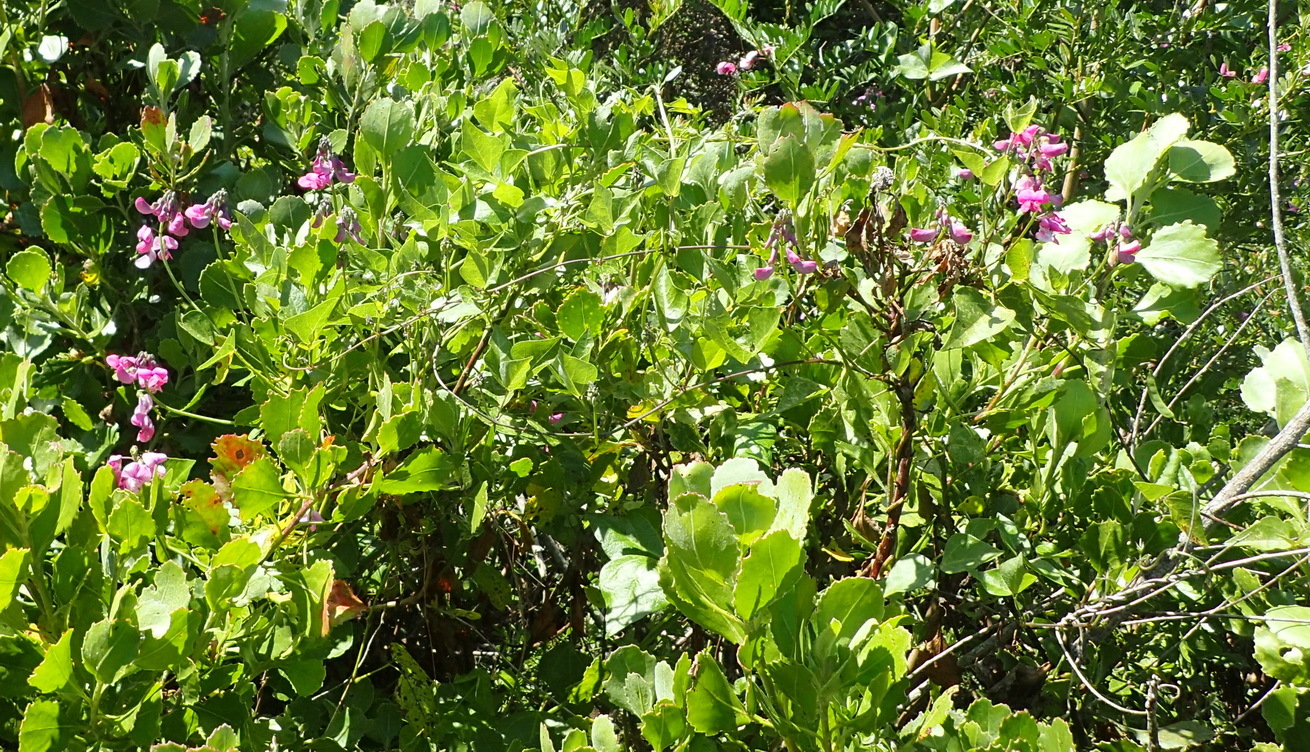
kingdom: Plantae
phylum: Tracheophyta
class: Magnoliopsida
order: Fabales
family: Fabaceae
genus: Dipogon
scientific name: Dipogon lignosus
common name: Okie bean
